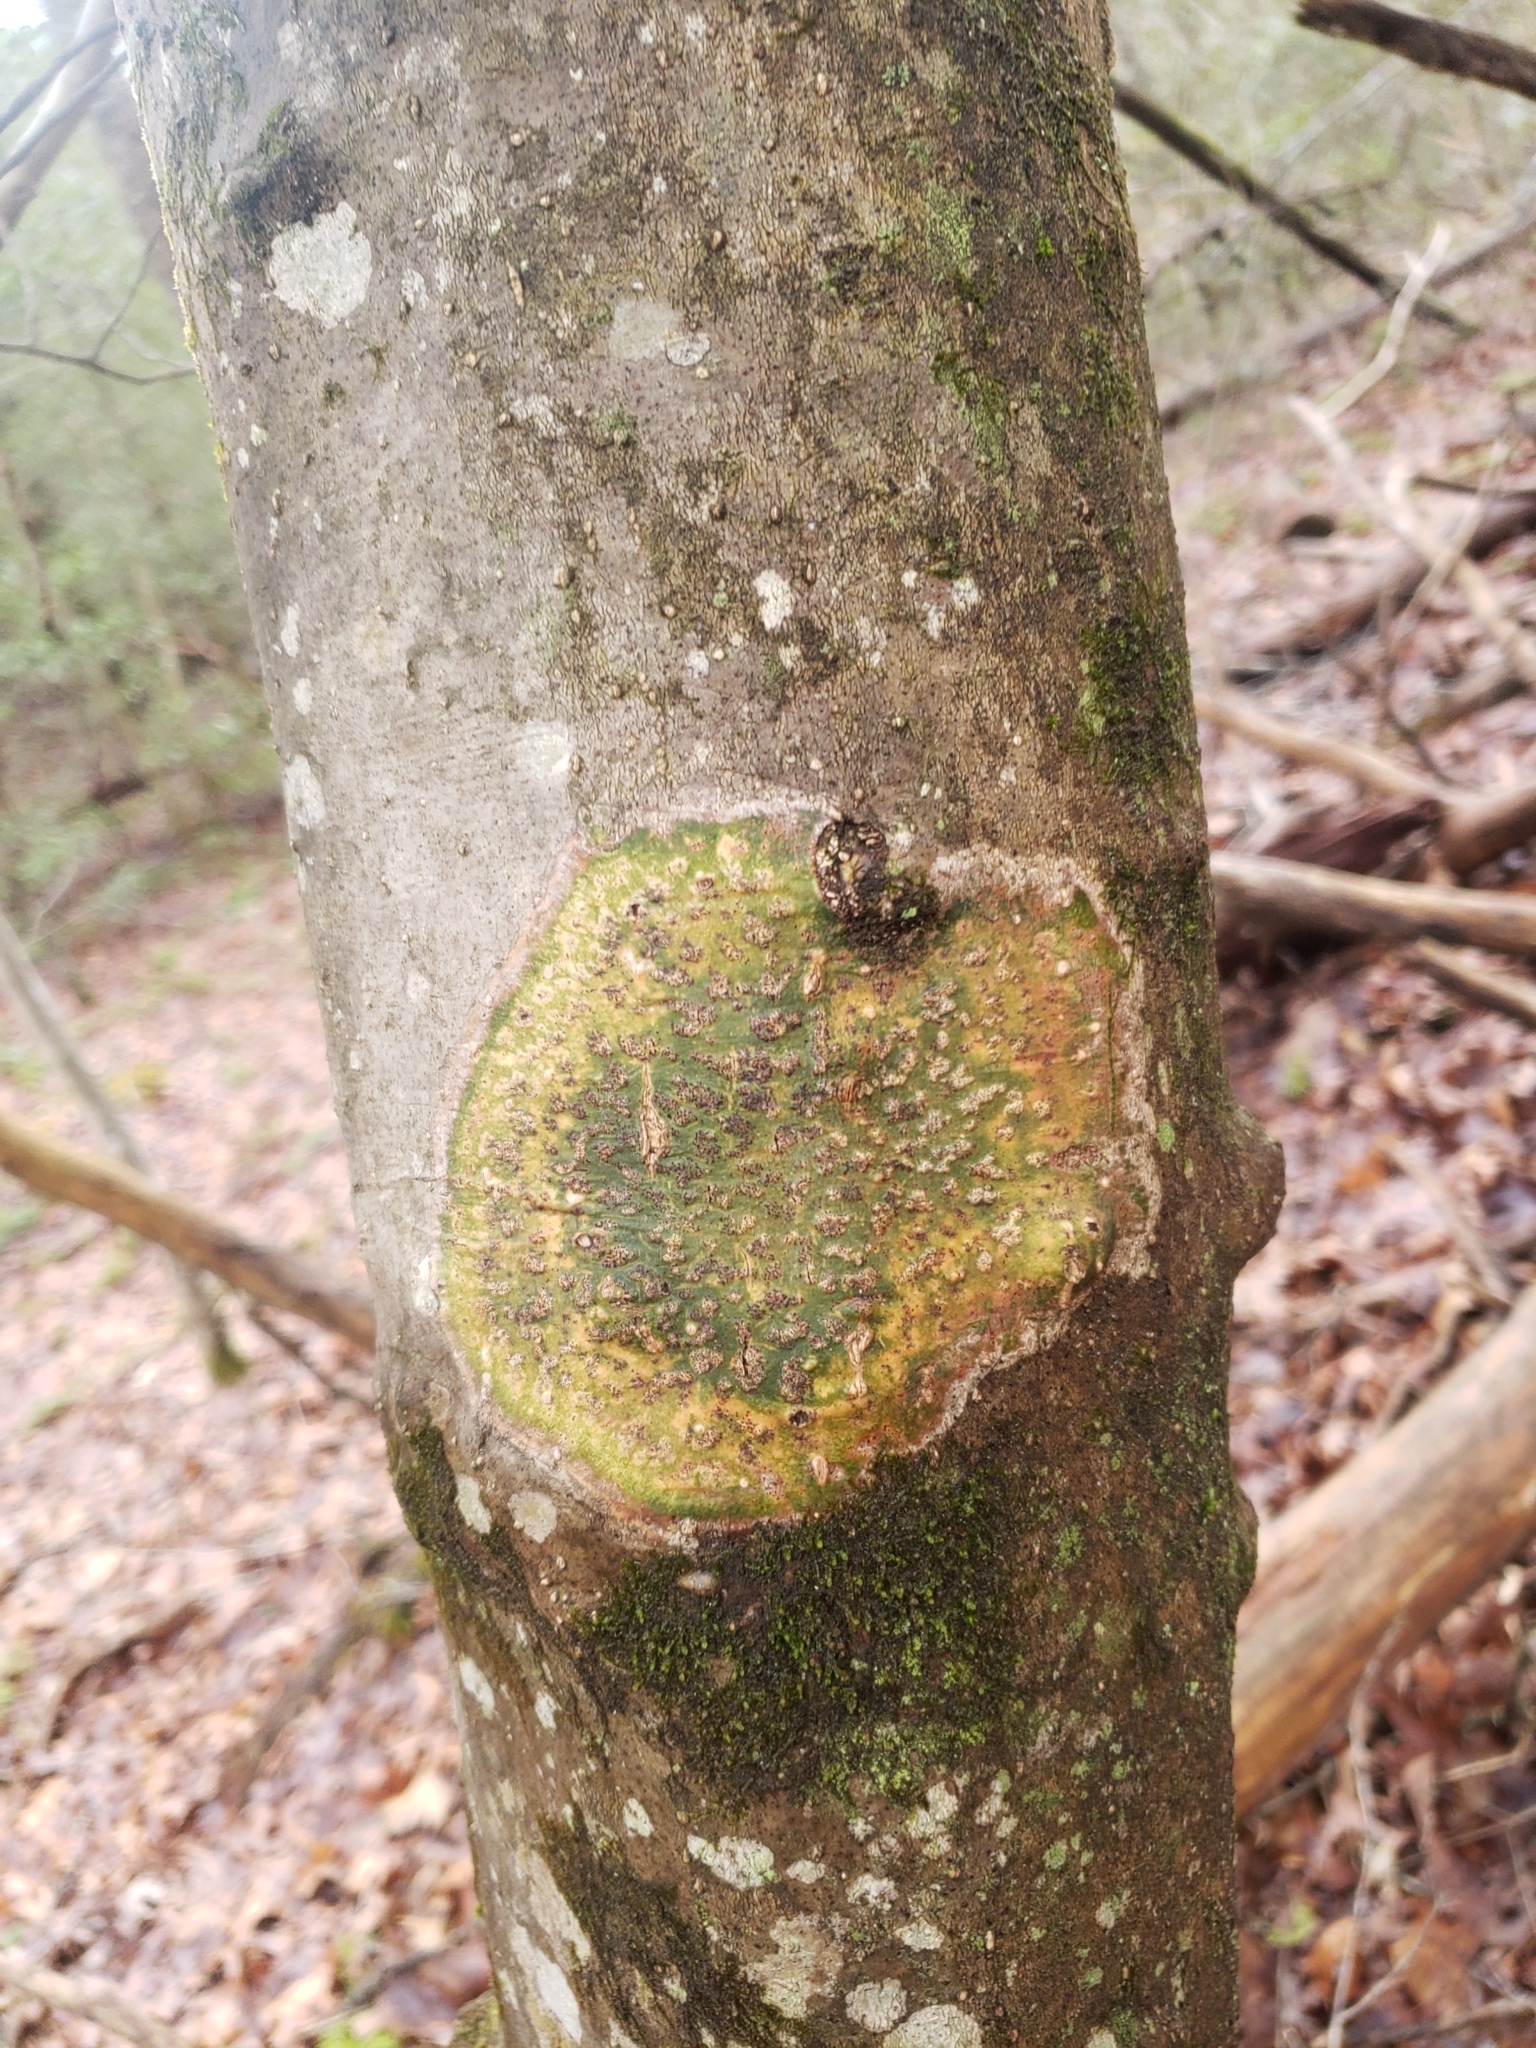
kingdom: Fungi
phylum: Ascomycota
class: Dothideomycetes
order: Trypetheliales
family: Trypetheliaceae
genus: Viridothelium
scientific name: Viridothelium virens
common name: Speckled blister lichen
